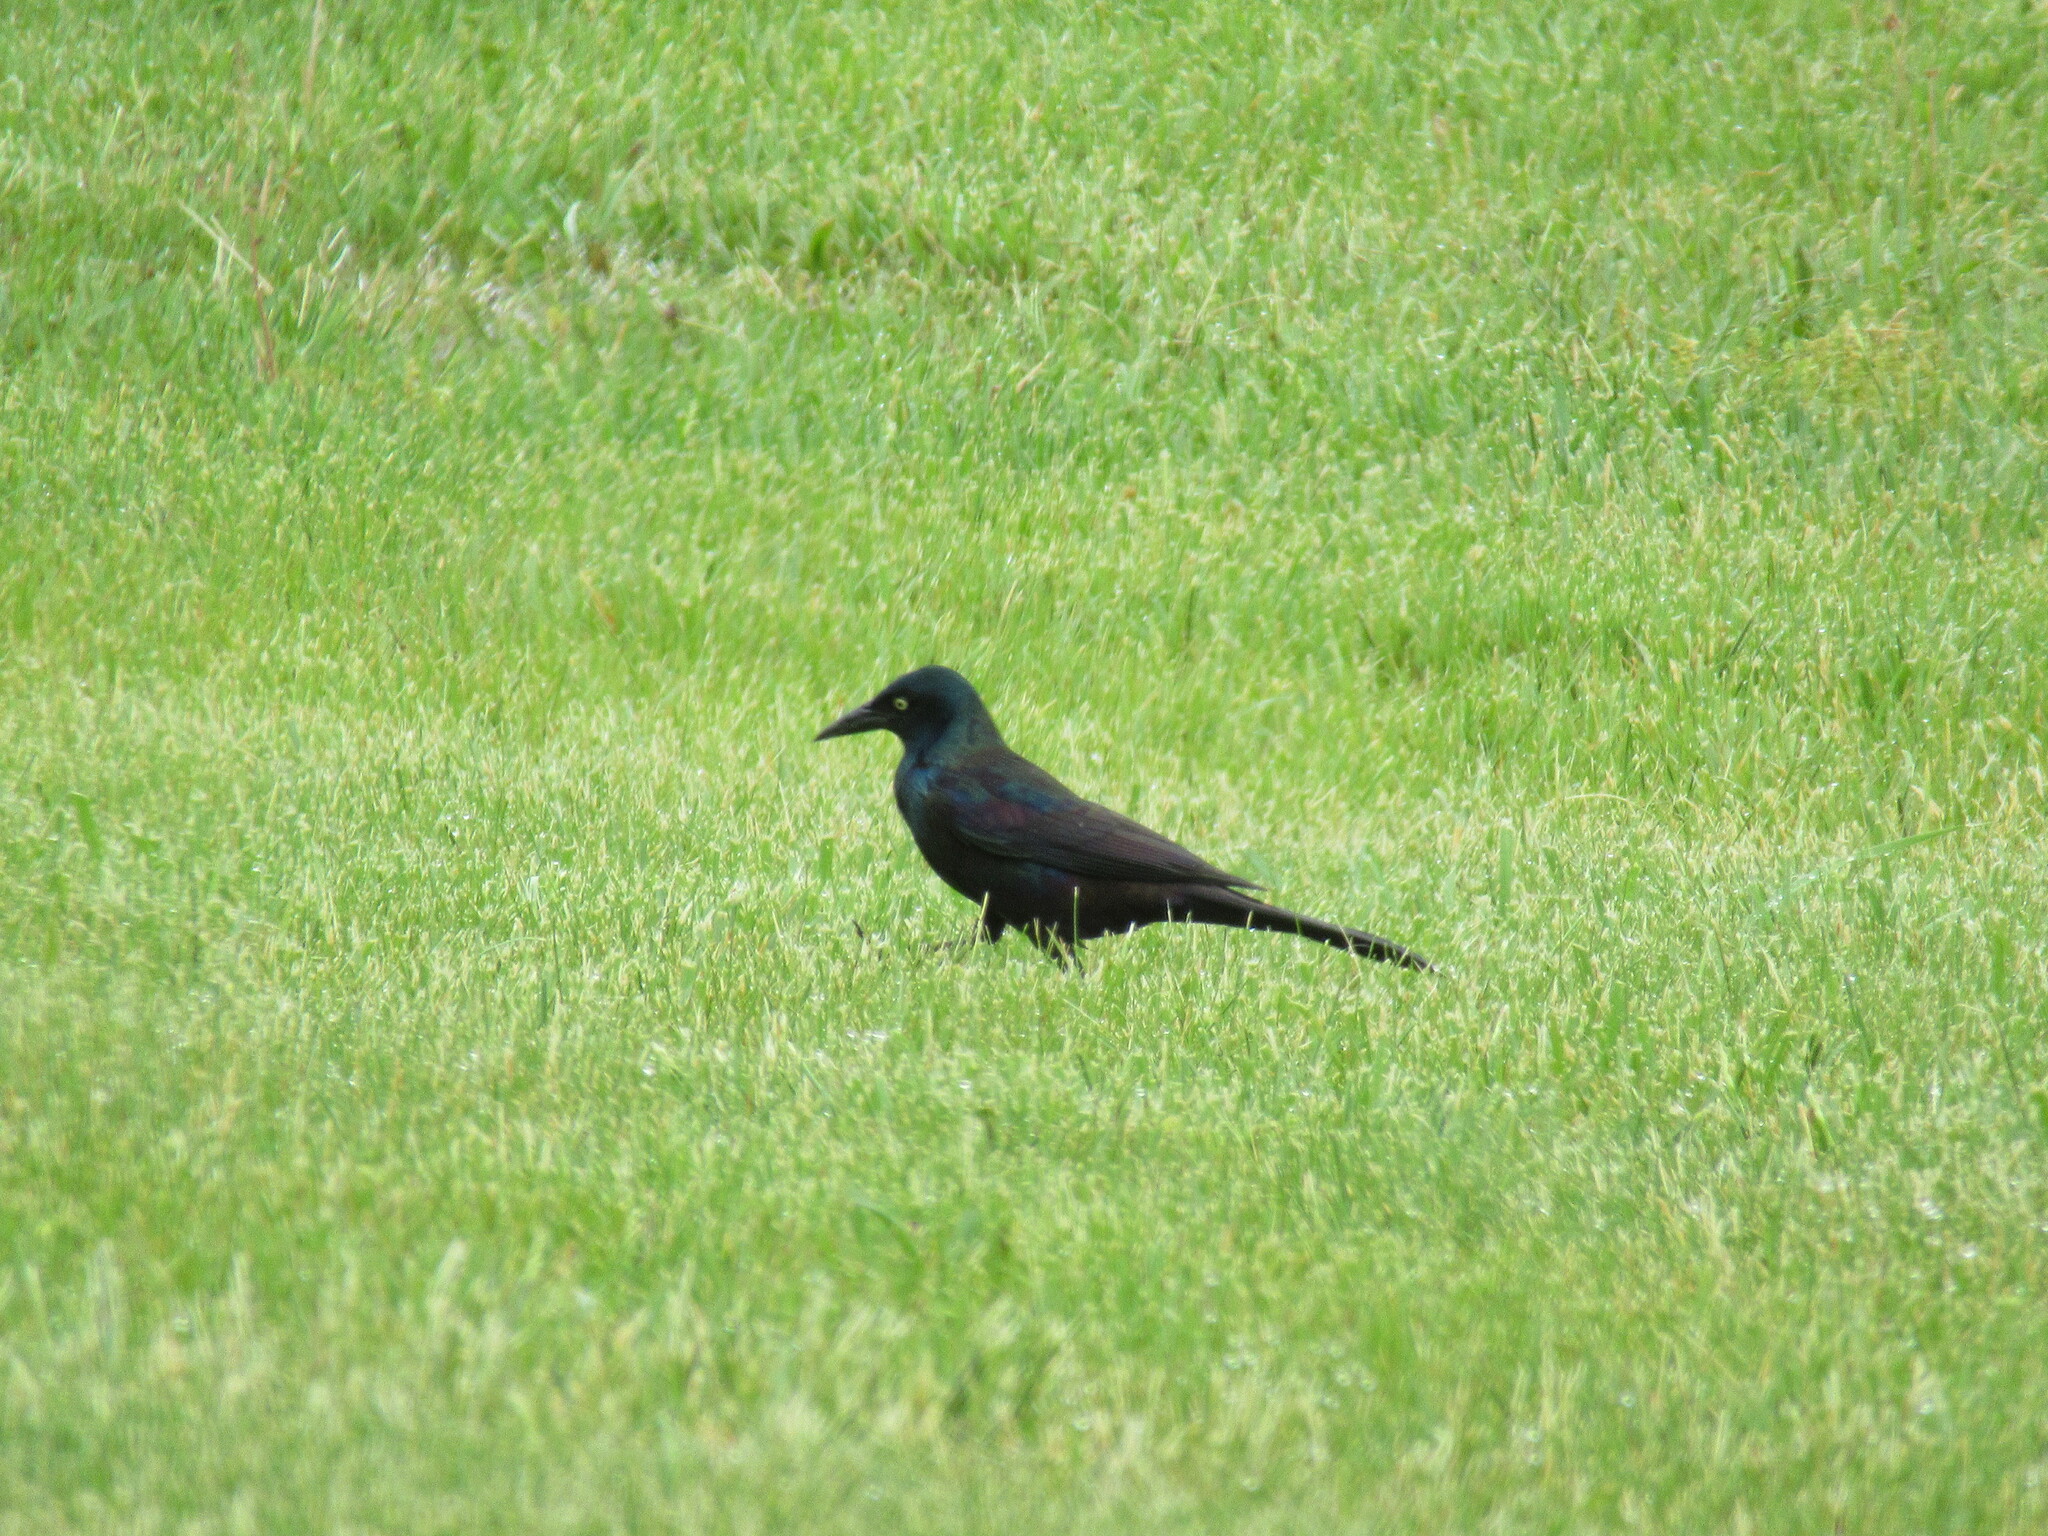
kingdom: Animalia
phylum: Chordata
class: Aves
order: Passeriformes
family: Icteridae
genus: Quiscalus
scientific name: Quiscalus quiscula
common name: Common grackle
